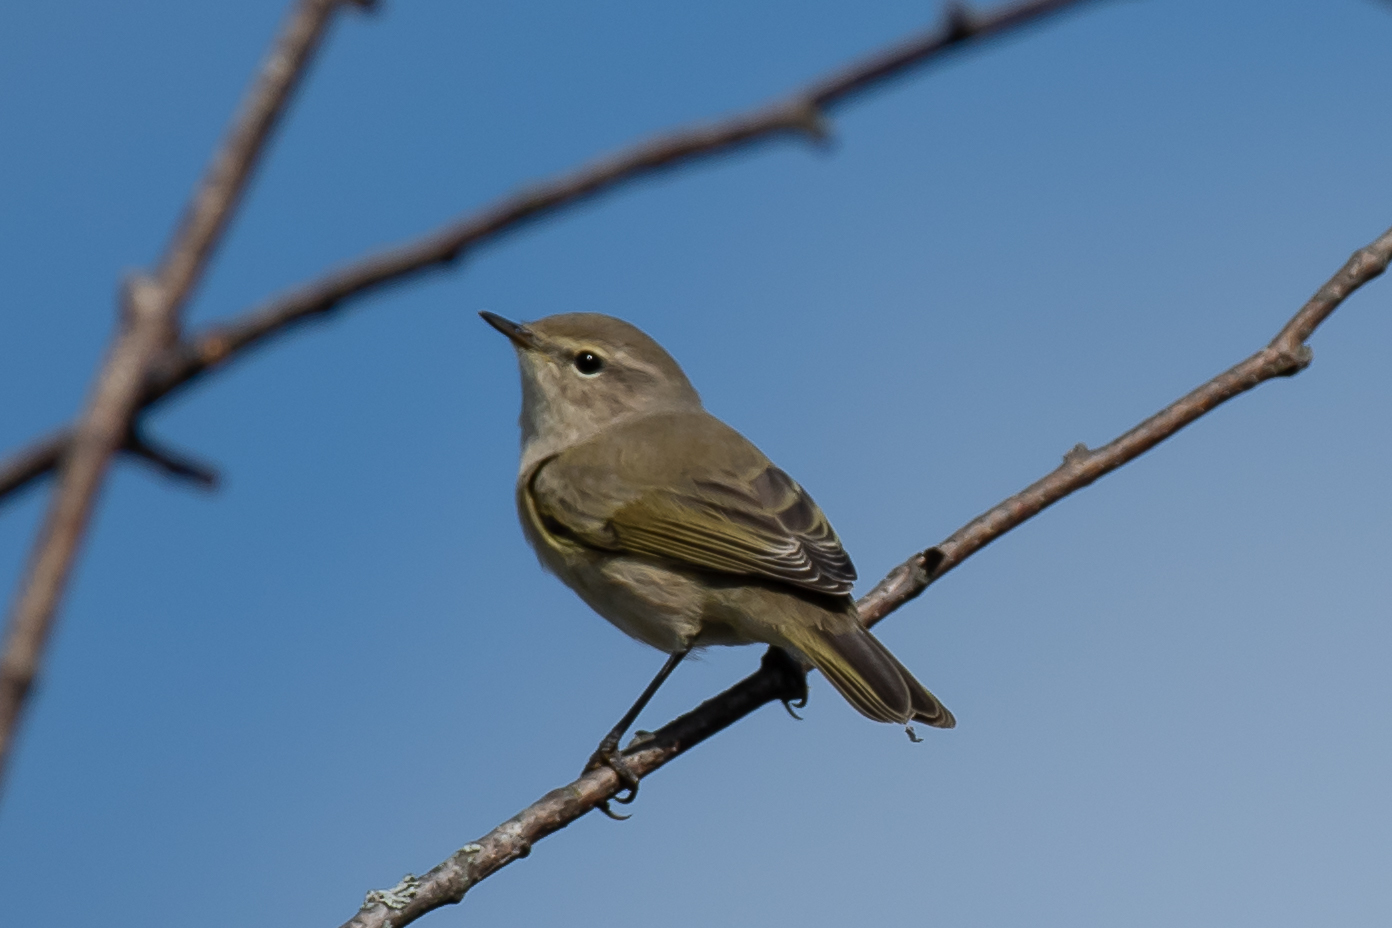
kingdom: Animalia
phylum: Chordata
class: Aves
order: Passeriformes
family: Phylloscopidae
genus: Phylloscopus
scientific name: Phylloscopus collybita
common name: Common chiffchaff
